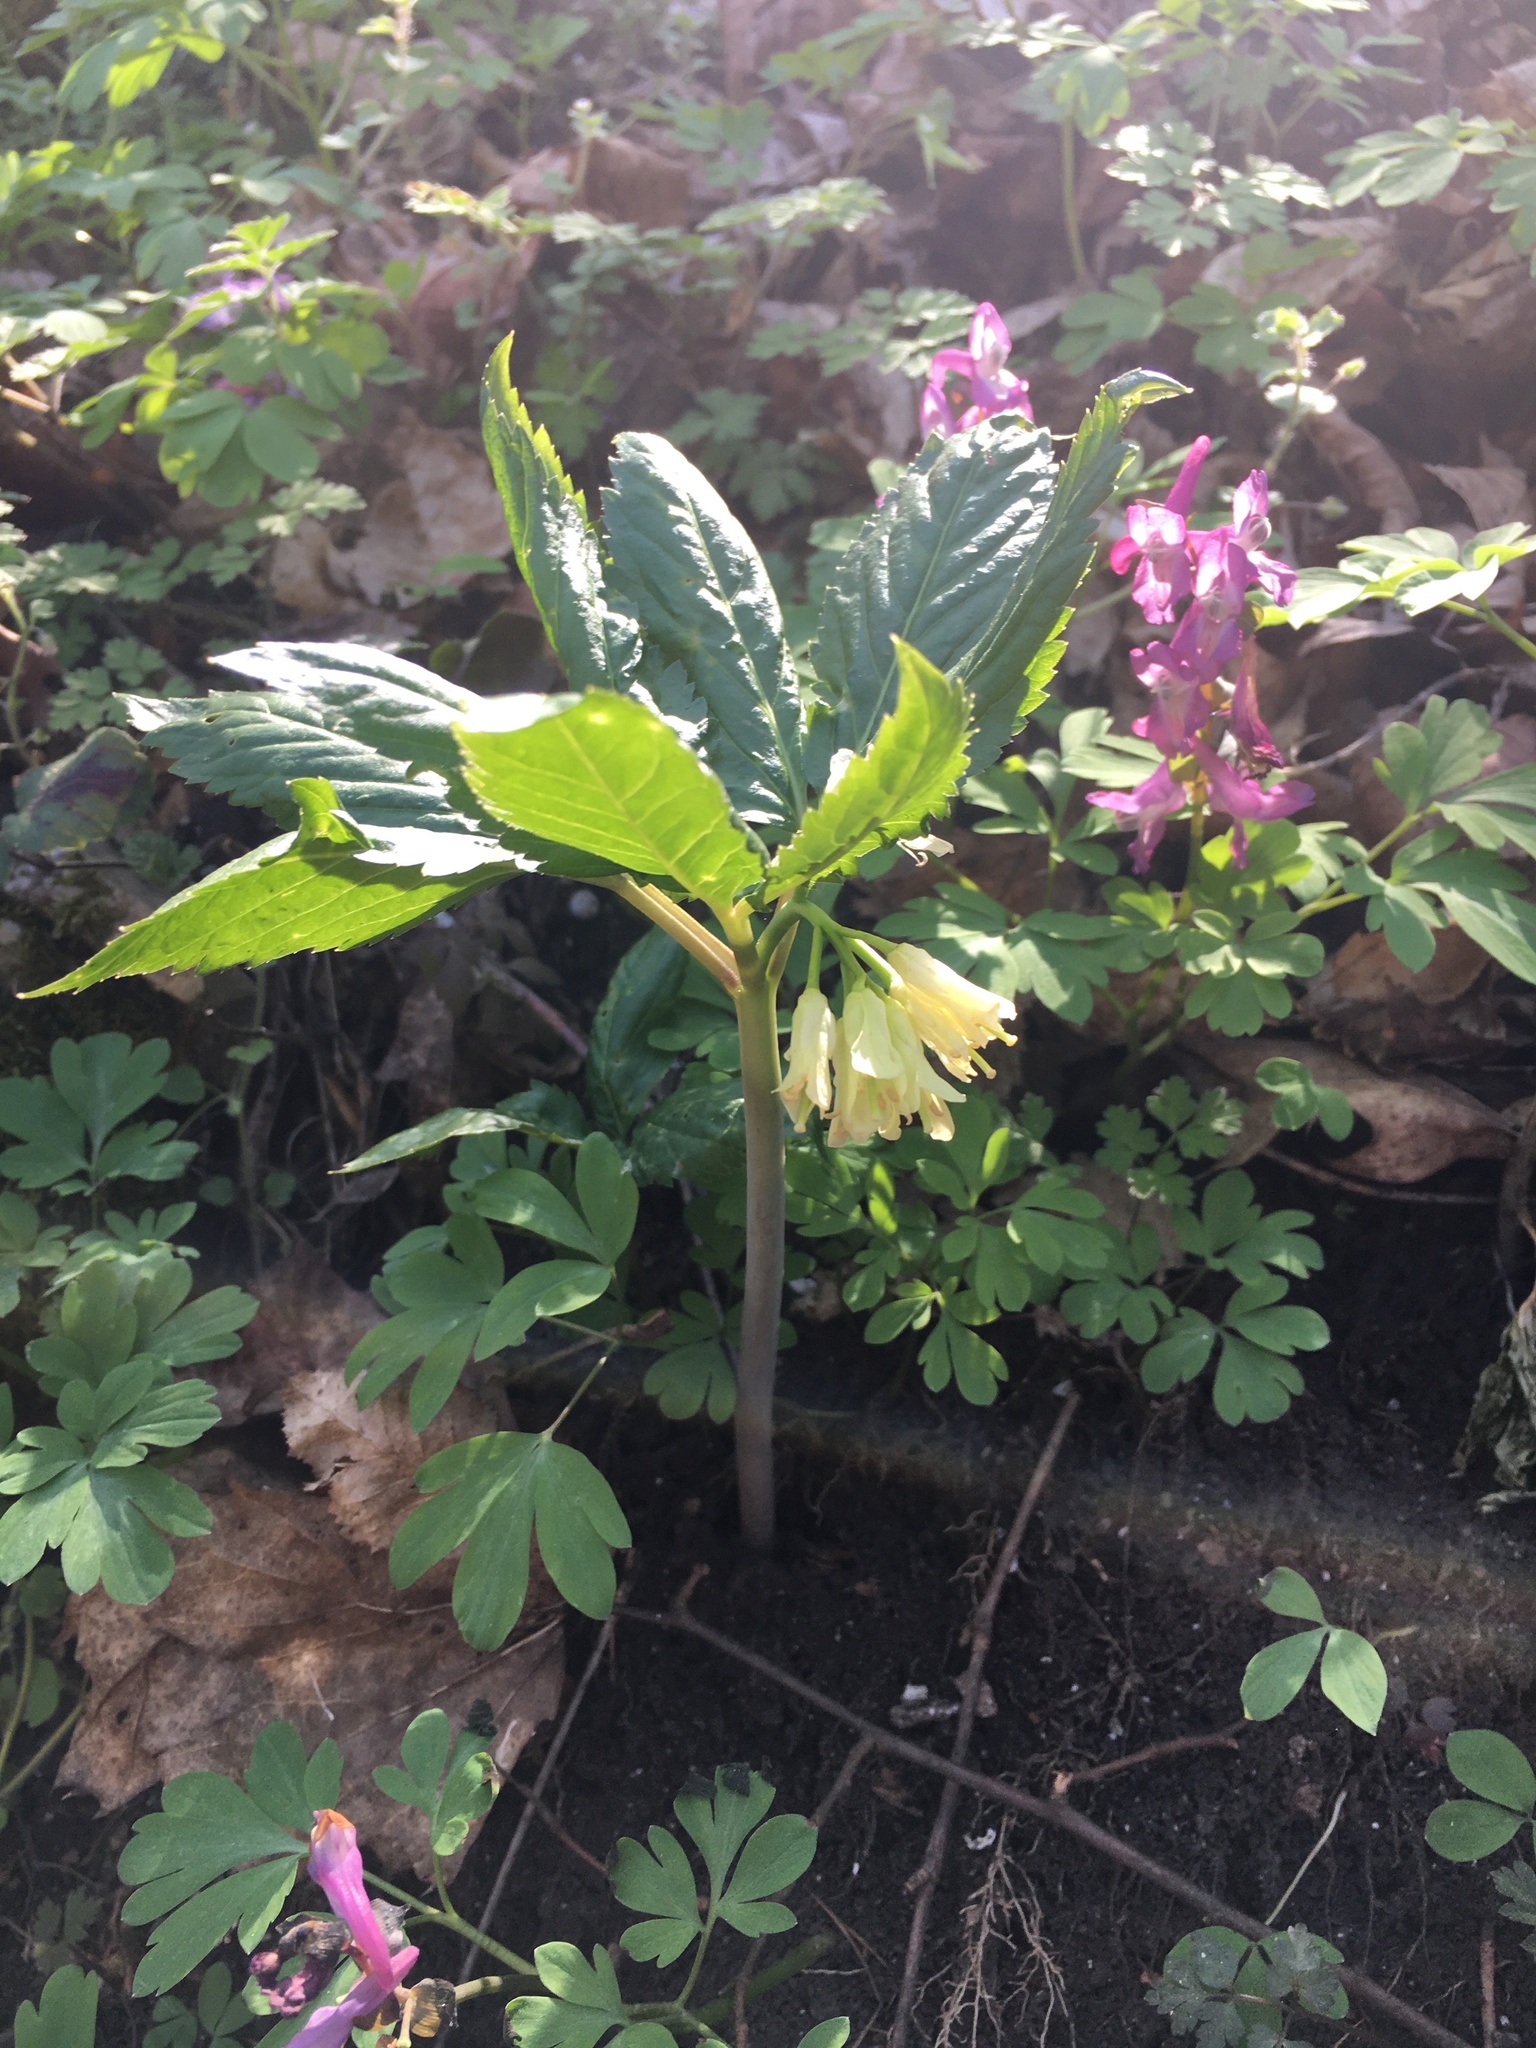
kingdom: Plantae
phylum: Tracheophyta
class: Magnoliopsida
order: Brassicales
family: Brassicaceae
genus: Cardamine
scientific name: Cardamine enneaphyllos
